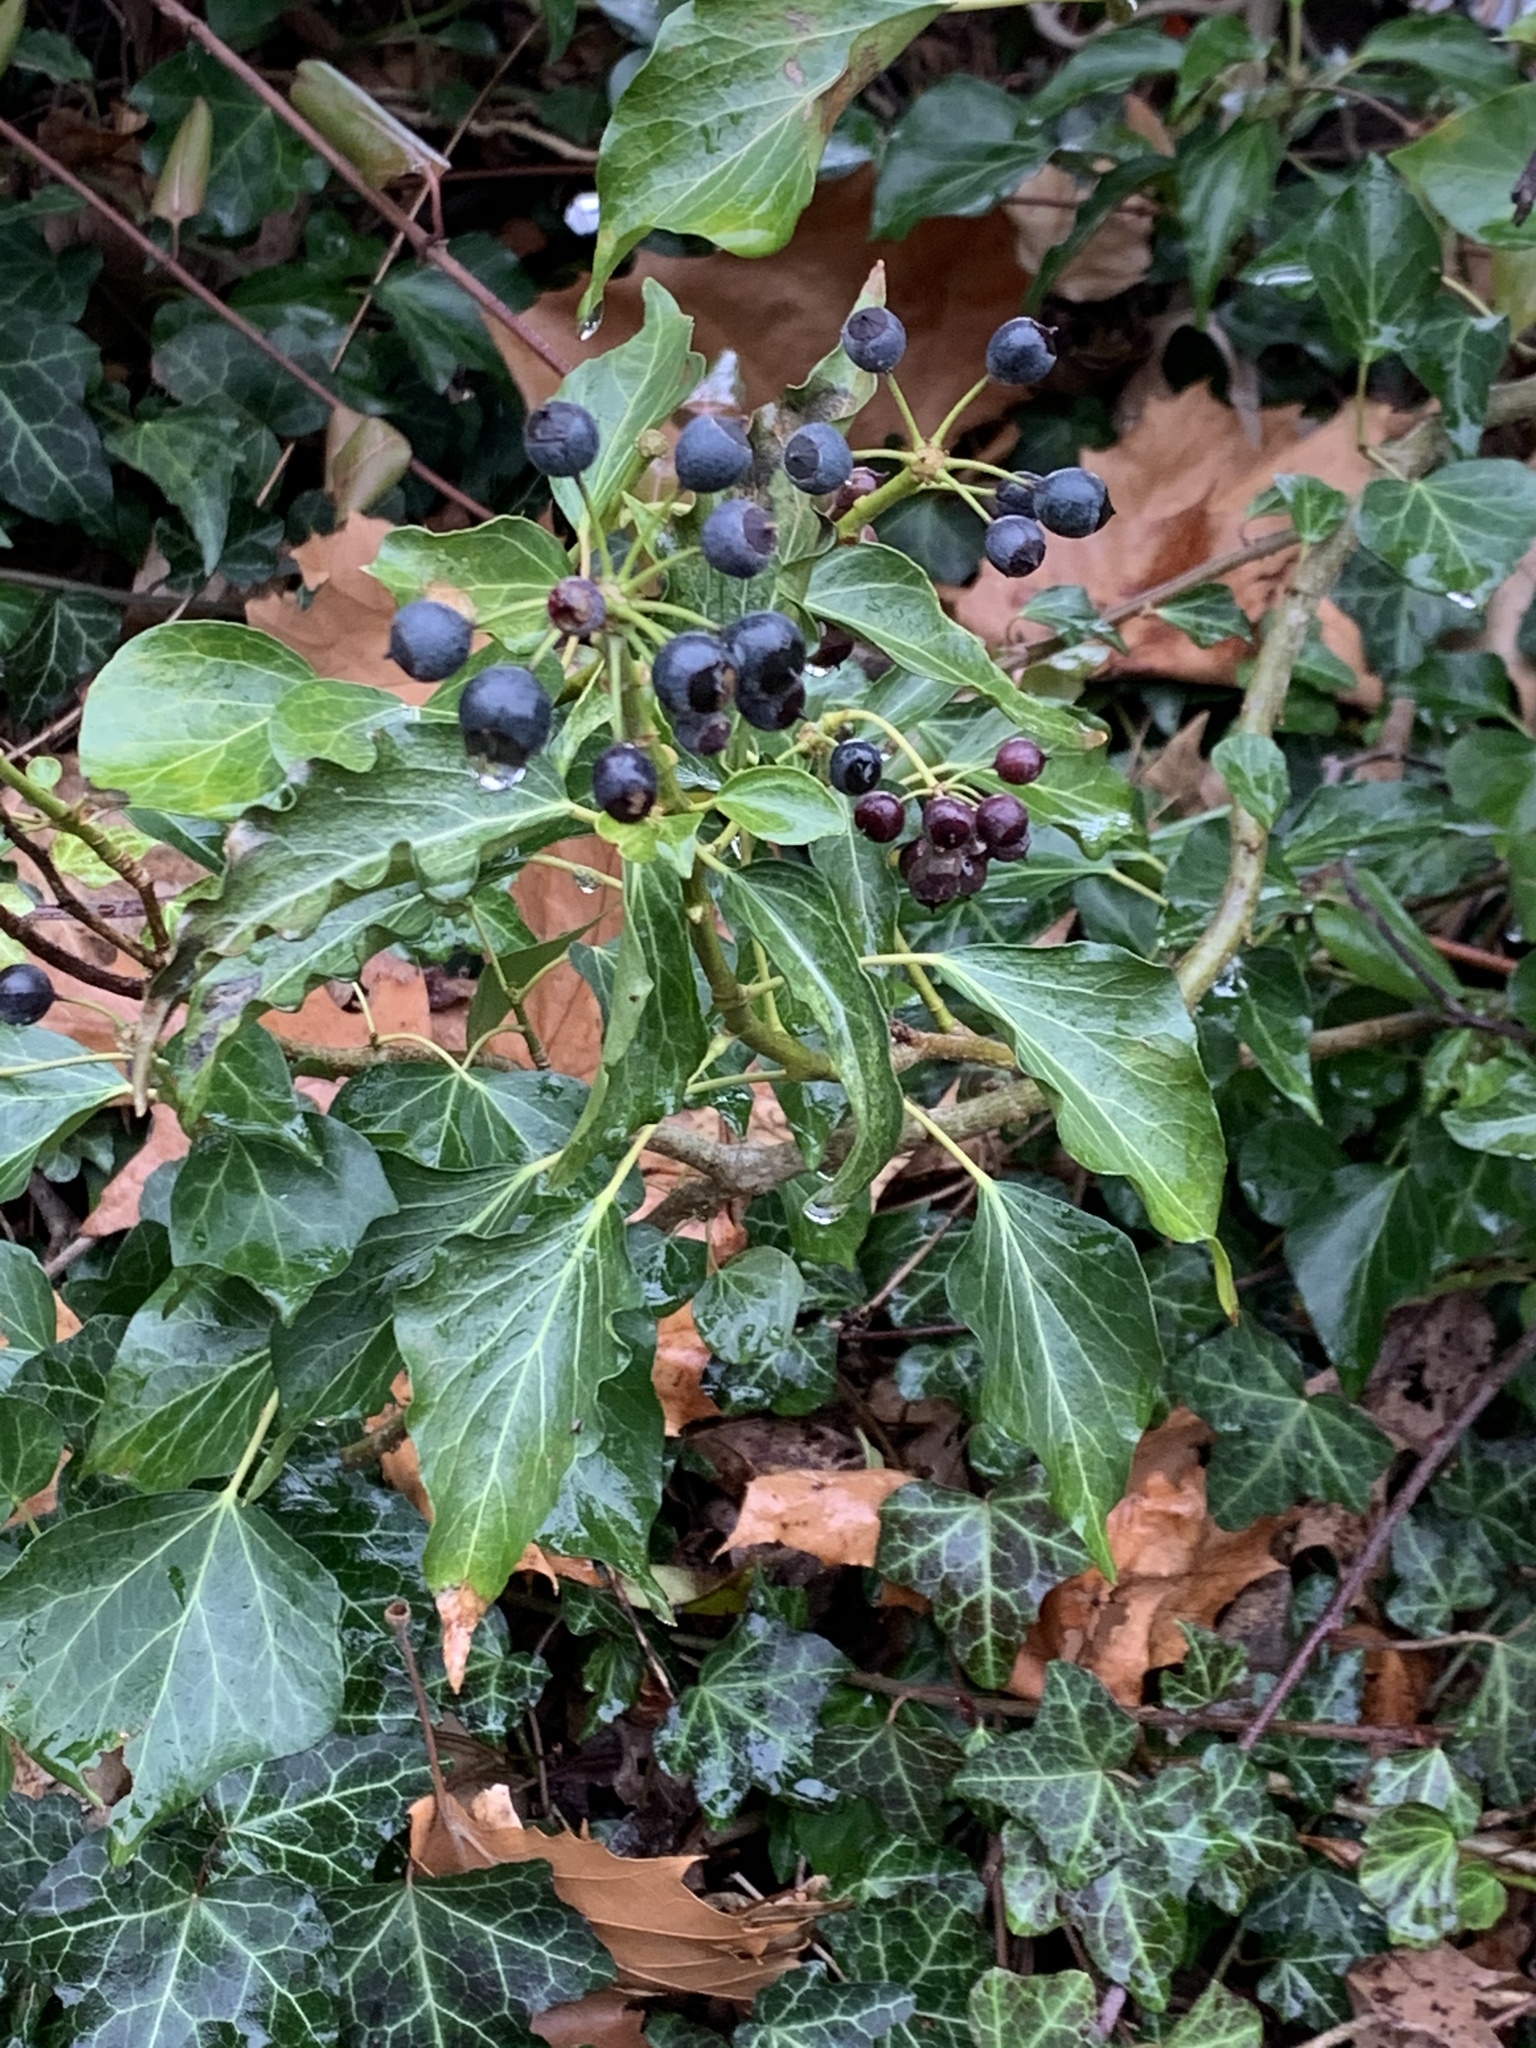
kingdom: Plantae
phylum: Tracheophyta
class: Magnoliopsida
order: Apiales
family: Araliaceae
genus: Hedera
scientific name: Hedera
